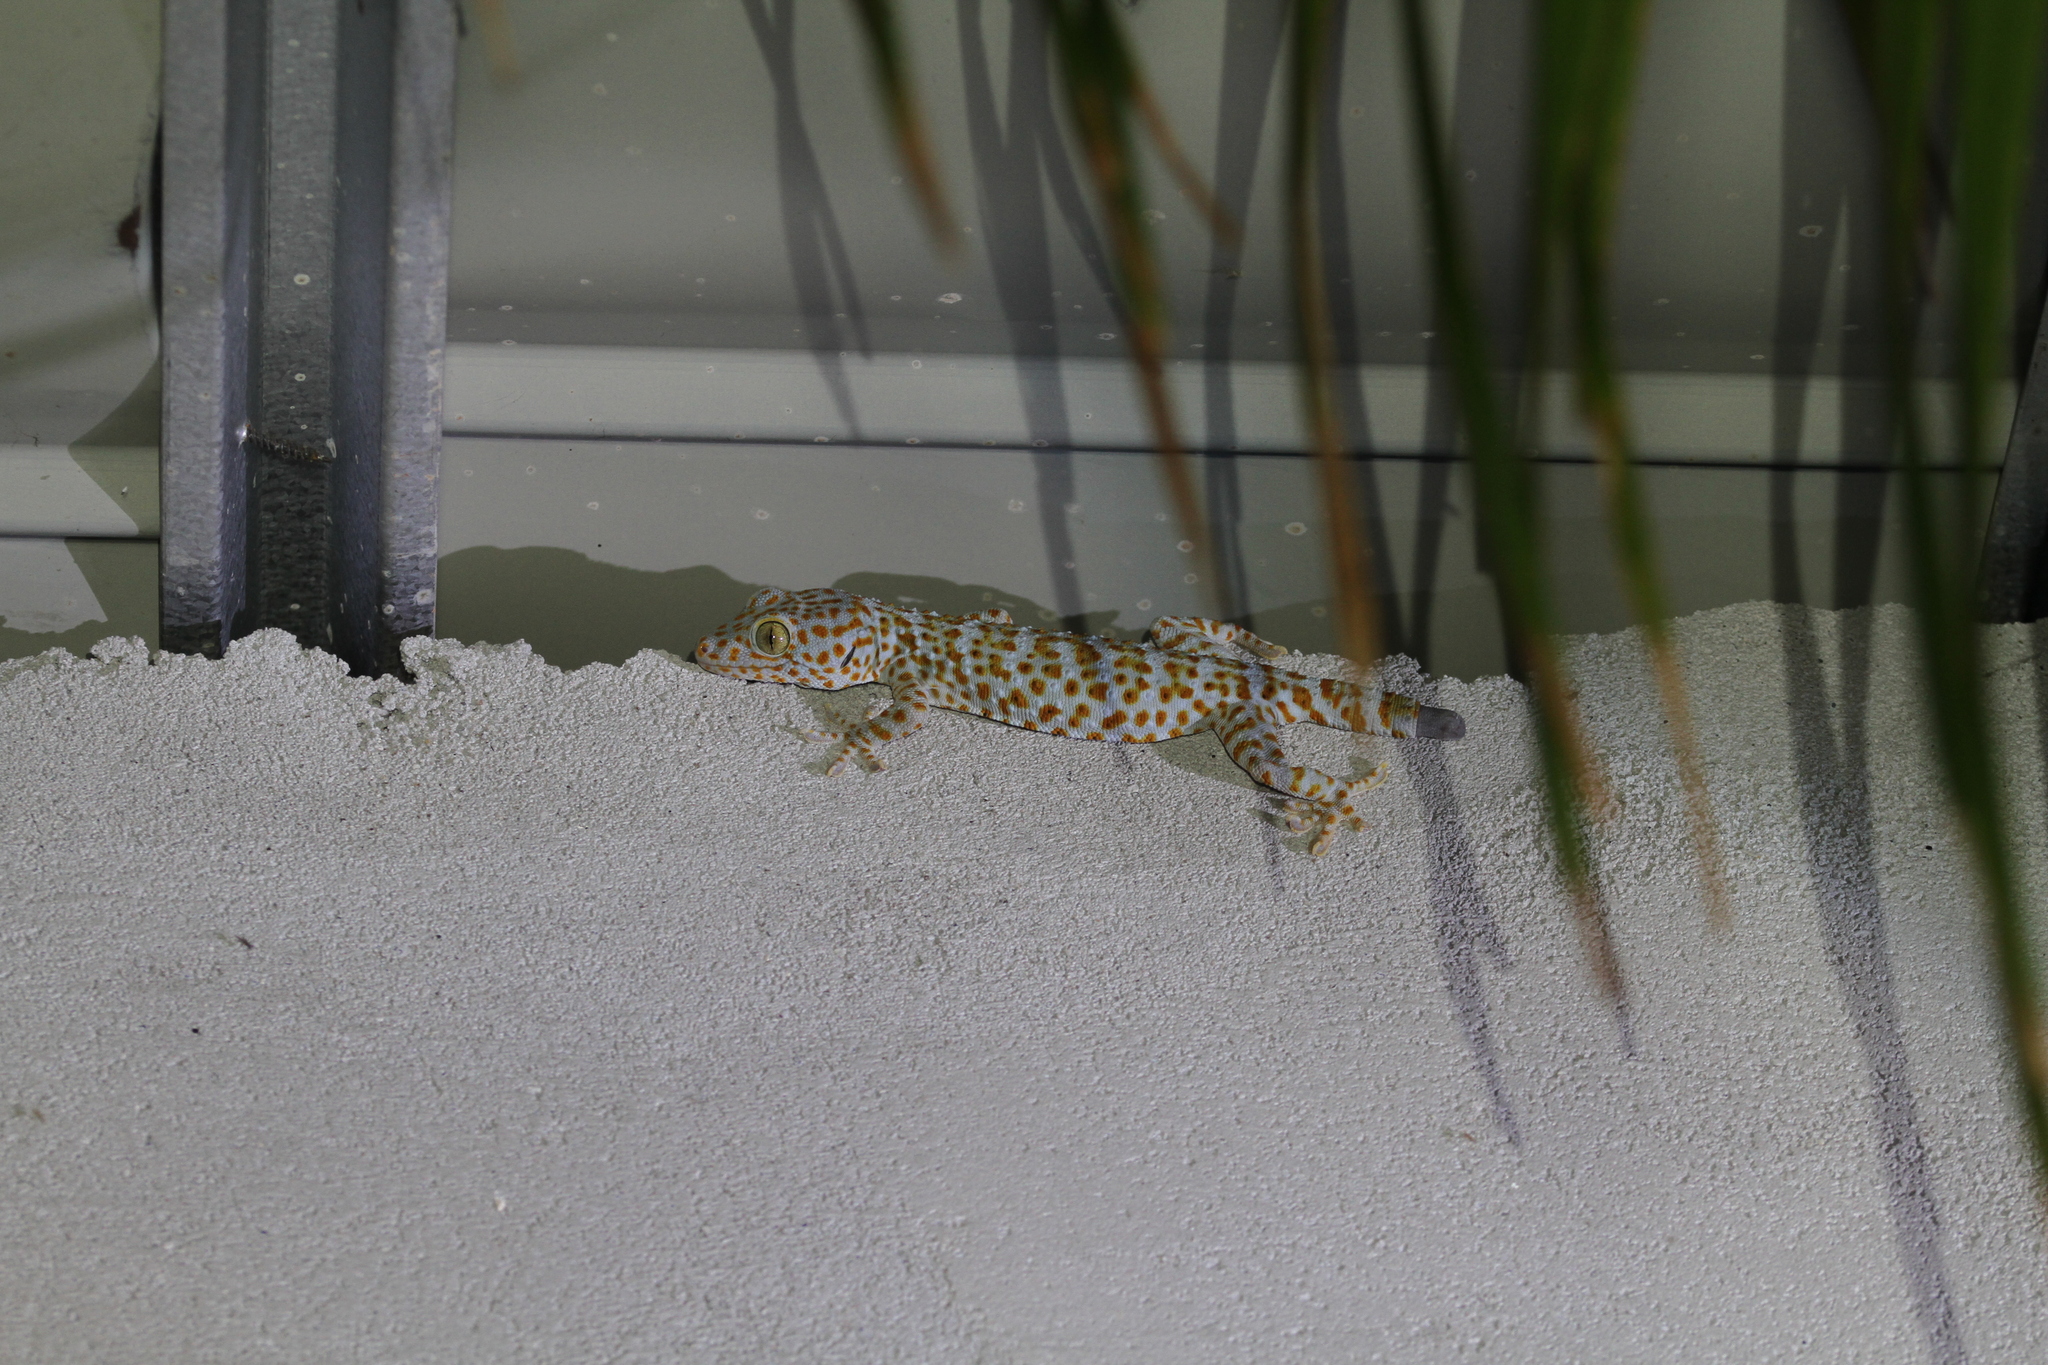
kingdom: Animalia
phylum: Chordata
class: Squamata
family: Gekkonidae
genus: Gekko
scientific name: Gekko gecko
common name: Tokay gecko
